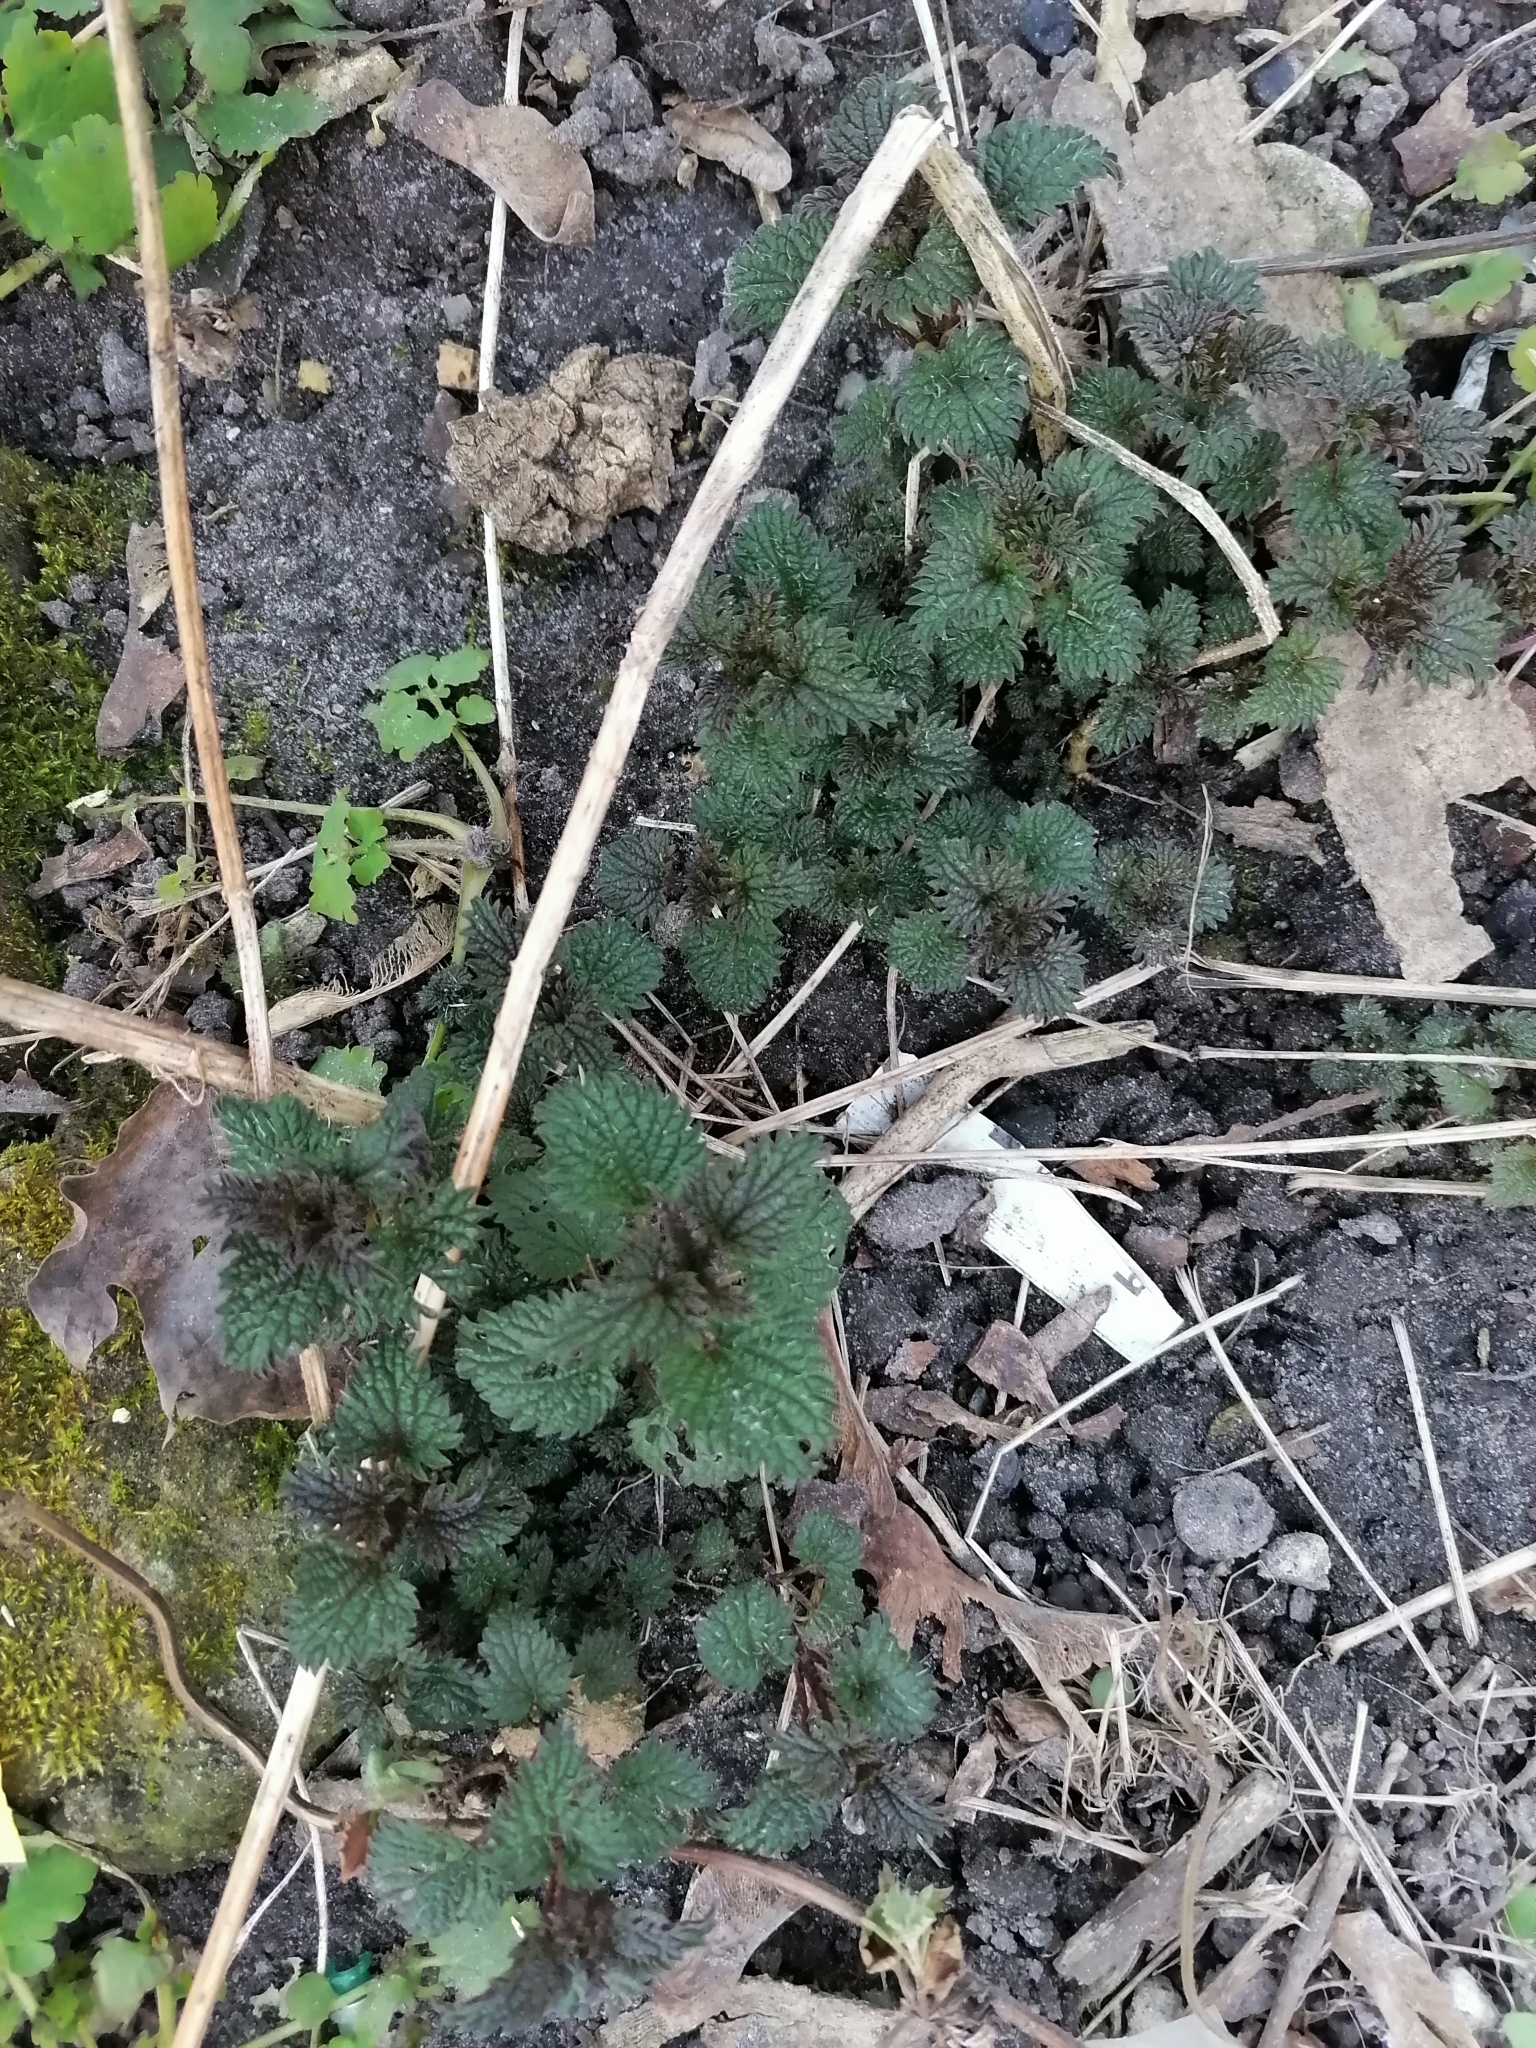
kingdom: Plantae
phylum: Tracheophyta
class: Magnoliopsida
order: Rosales
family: Urticaceae
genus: Urtica
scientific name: Urtica dioica
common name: Common nettle
